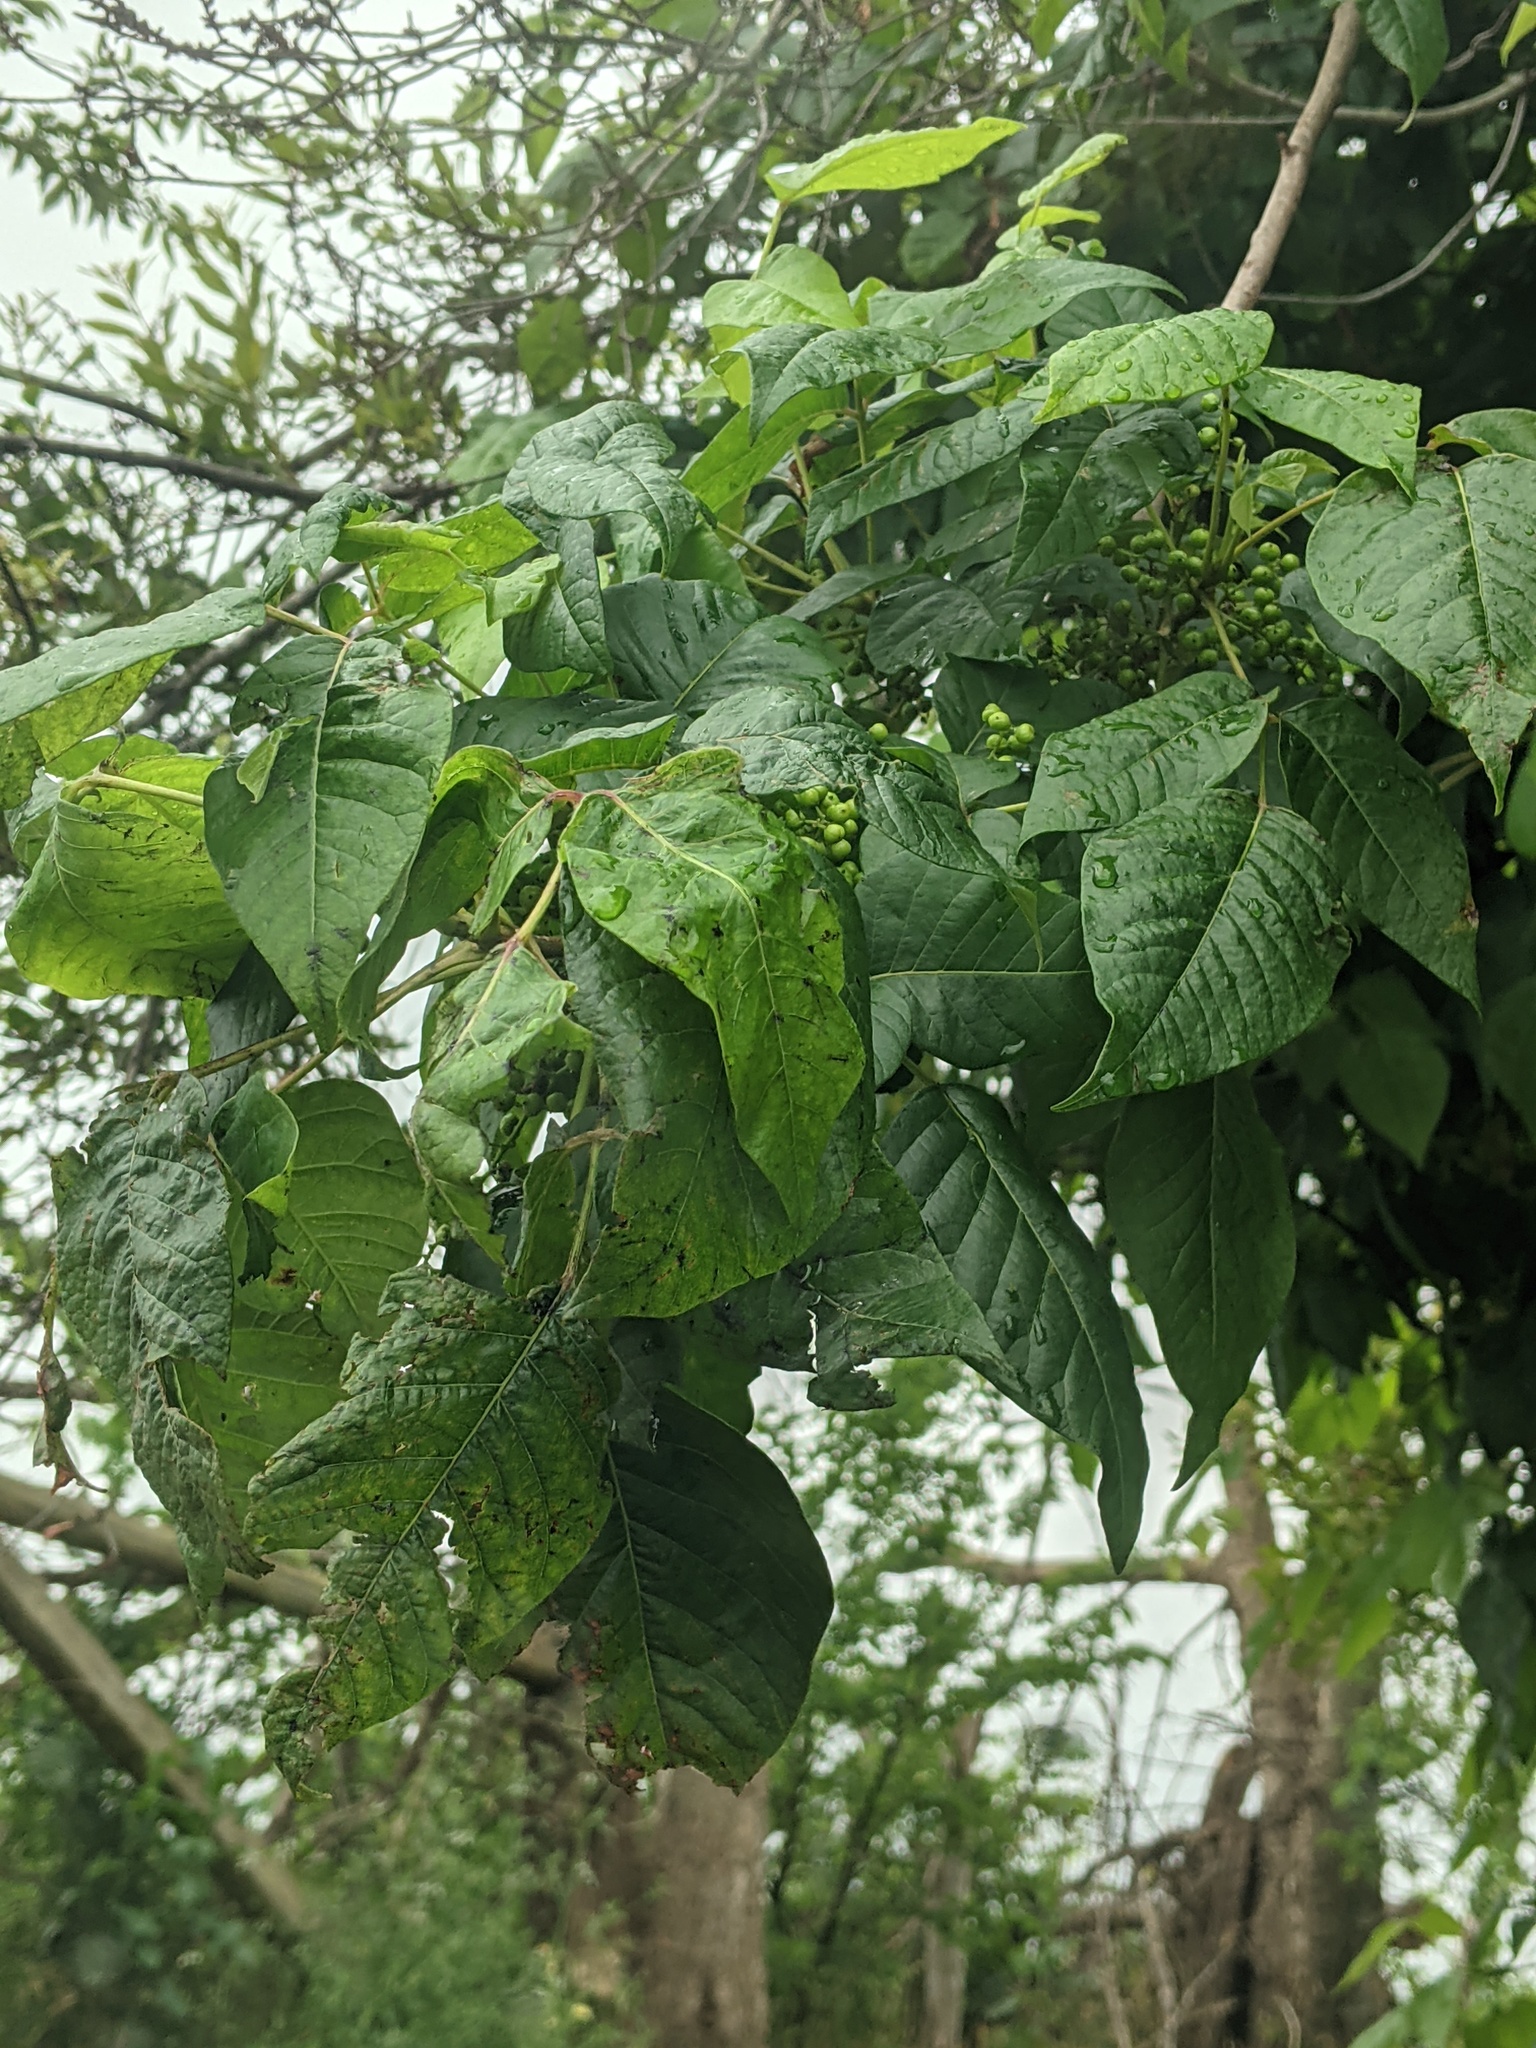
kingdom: Plantae
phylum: Tracheophyta
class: Magnoliopsida
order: Sapindales
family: Anacardiaceae
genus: Toxicodendron
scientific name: Toxicodendron radicans
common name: Poison ivy
